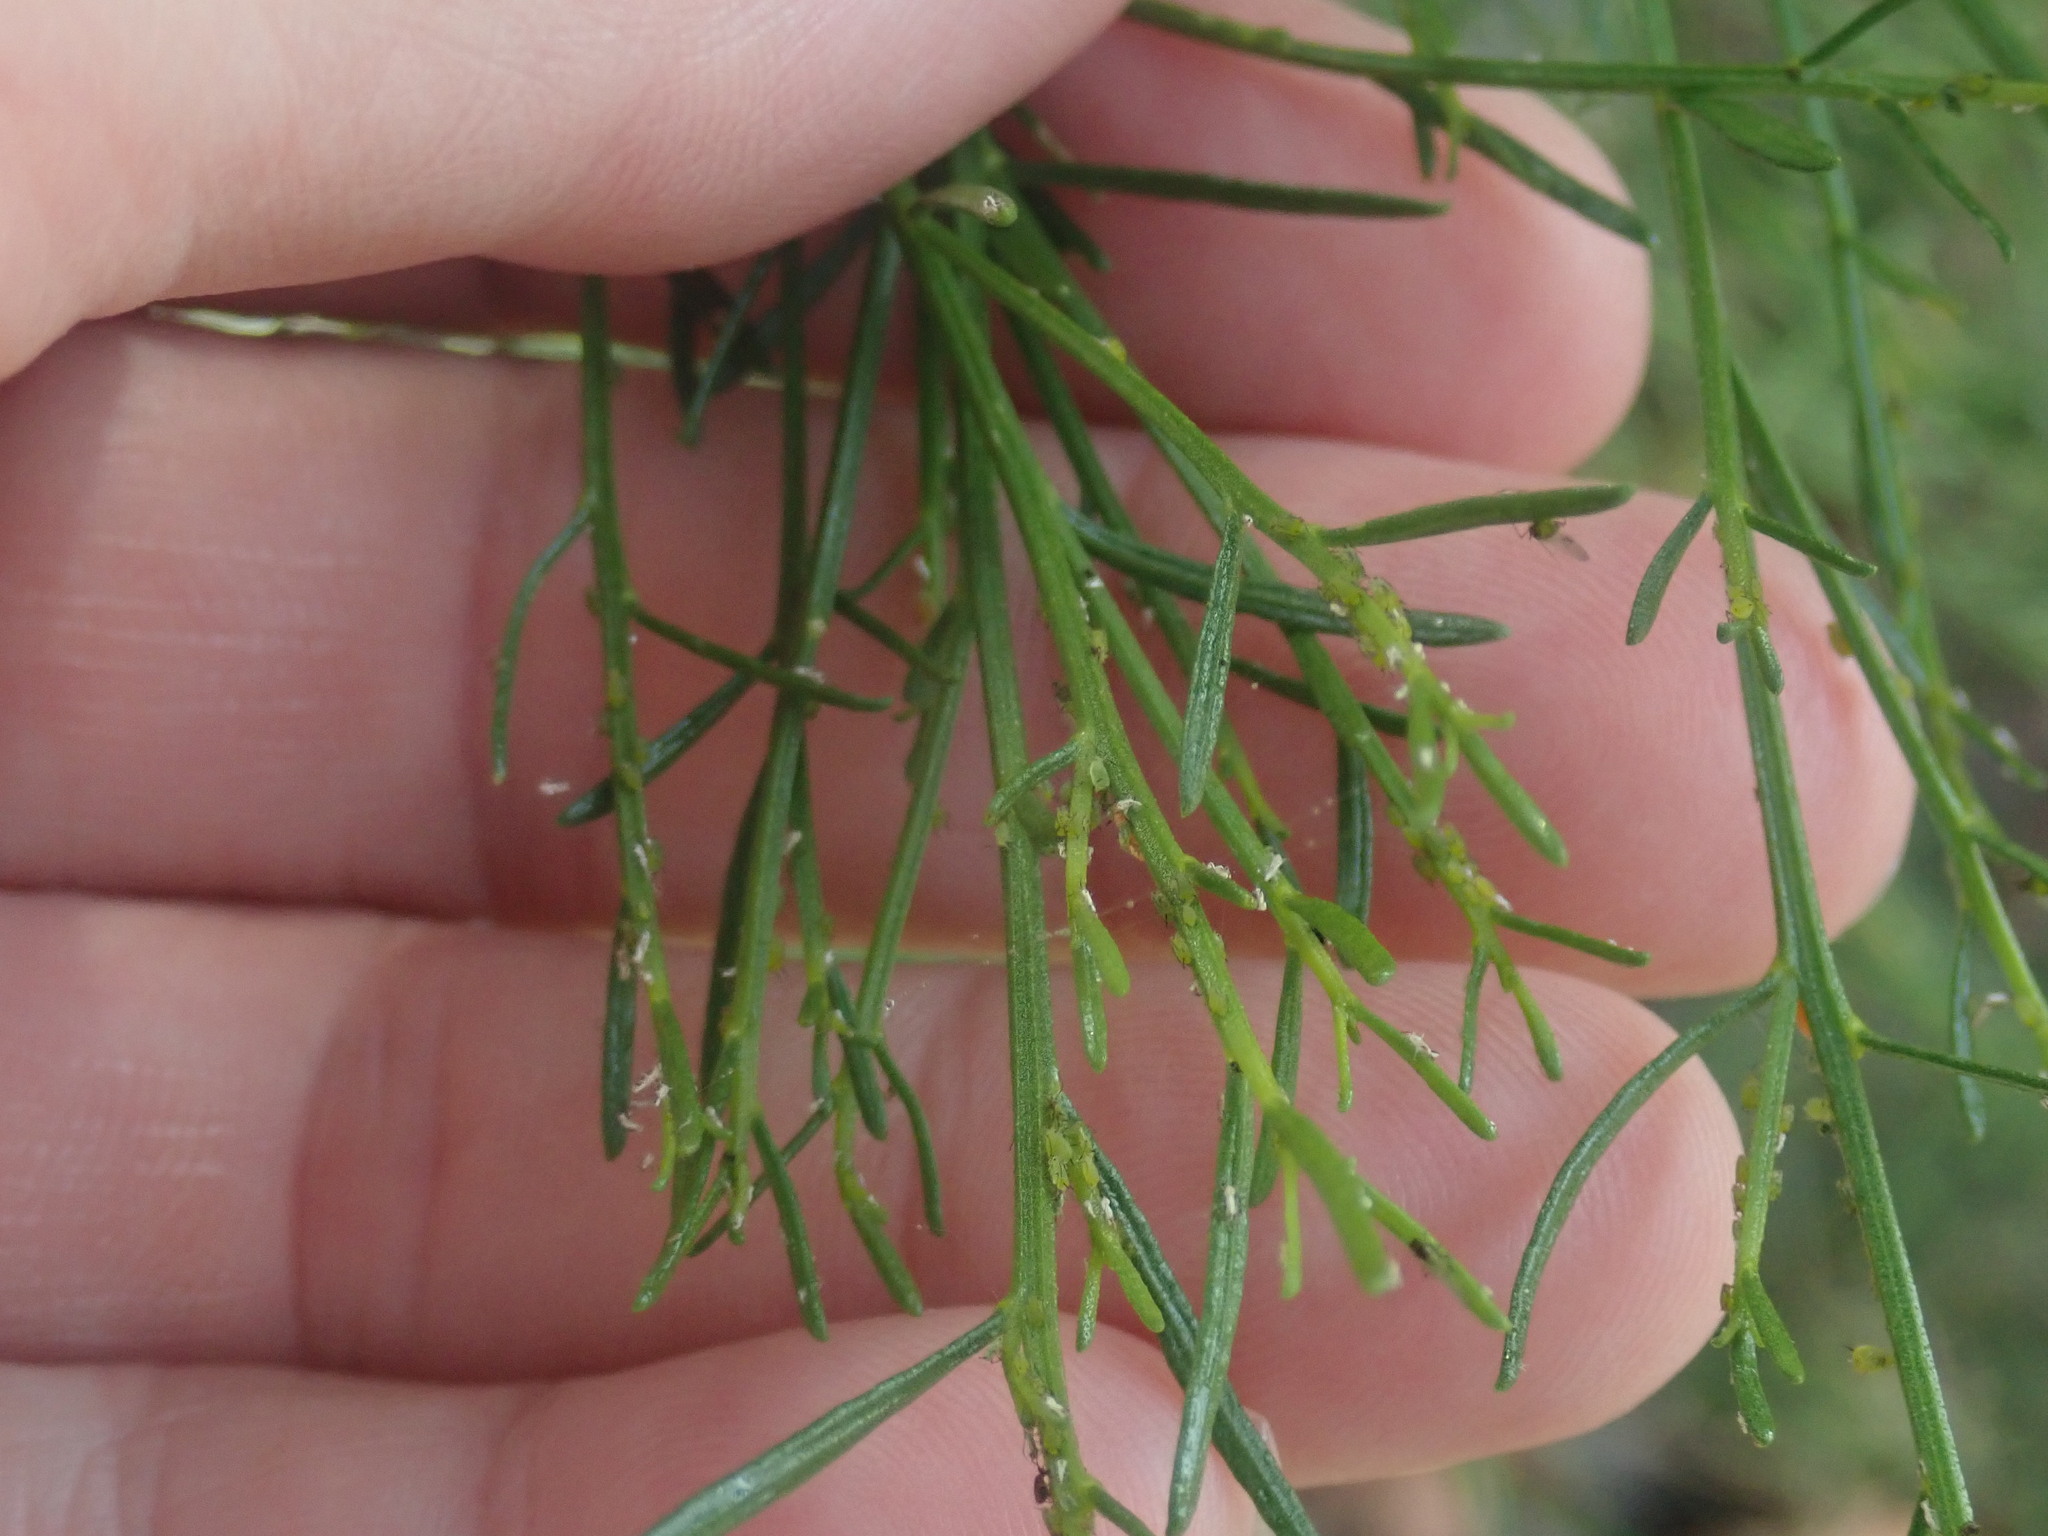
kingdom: Plantae
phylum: Tracheophyta
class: Magnoliopsida
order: Asterales
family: Asteraceae
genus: Baccharis
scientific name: Baccharis sarothroides
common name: Desert-broom
